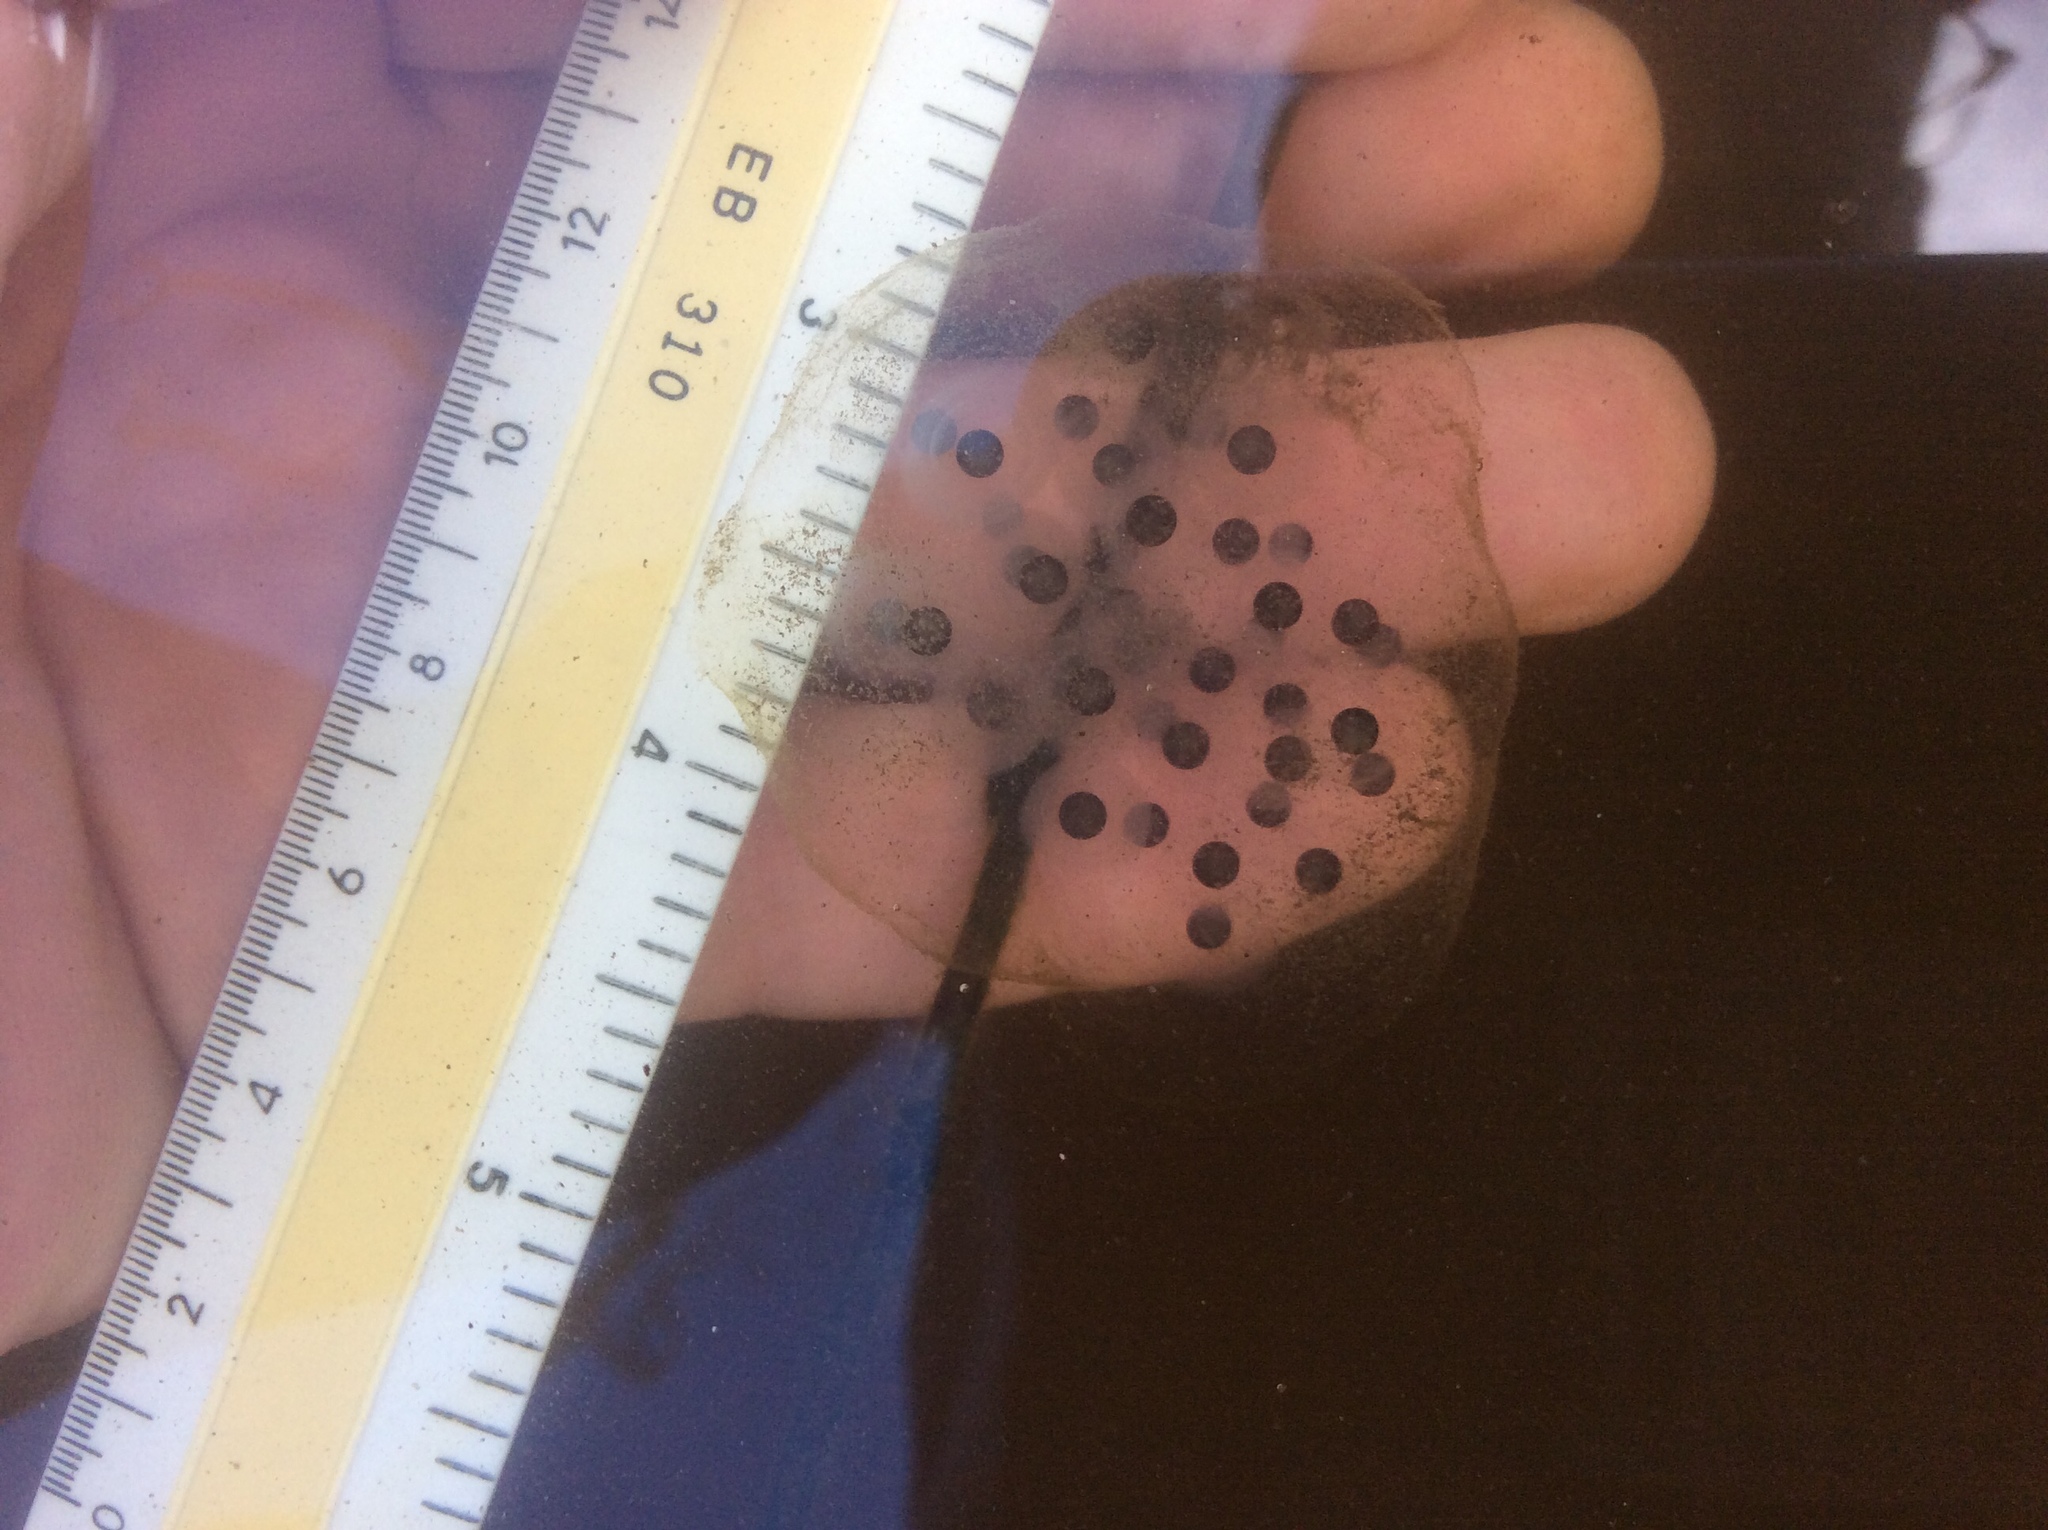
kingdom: Animalia
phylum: Chordata
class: Amphibia
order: Caudata
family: Ambystomatidae
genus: Ambystoma
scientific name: Ambystoma maculatum
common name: Spotted salamander
